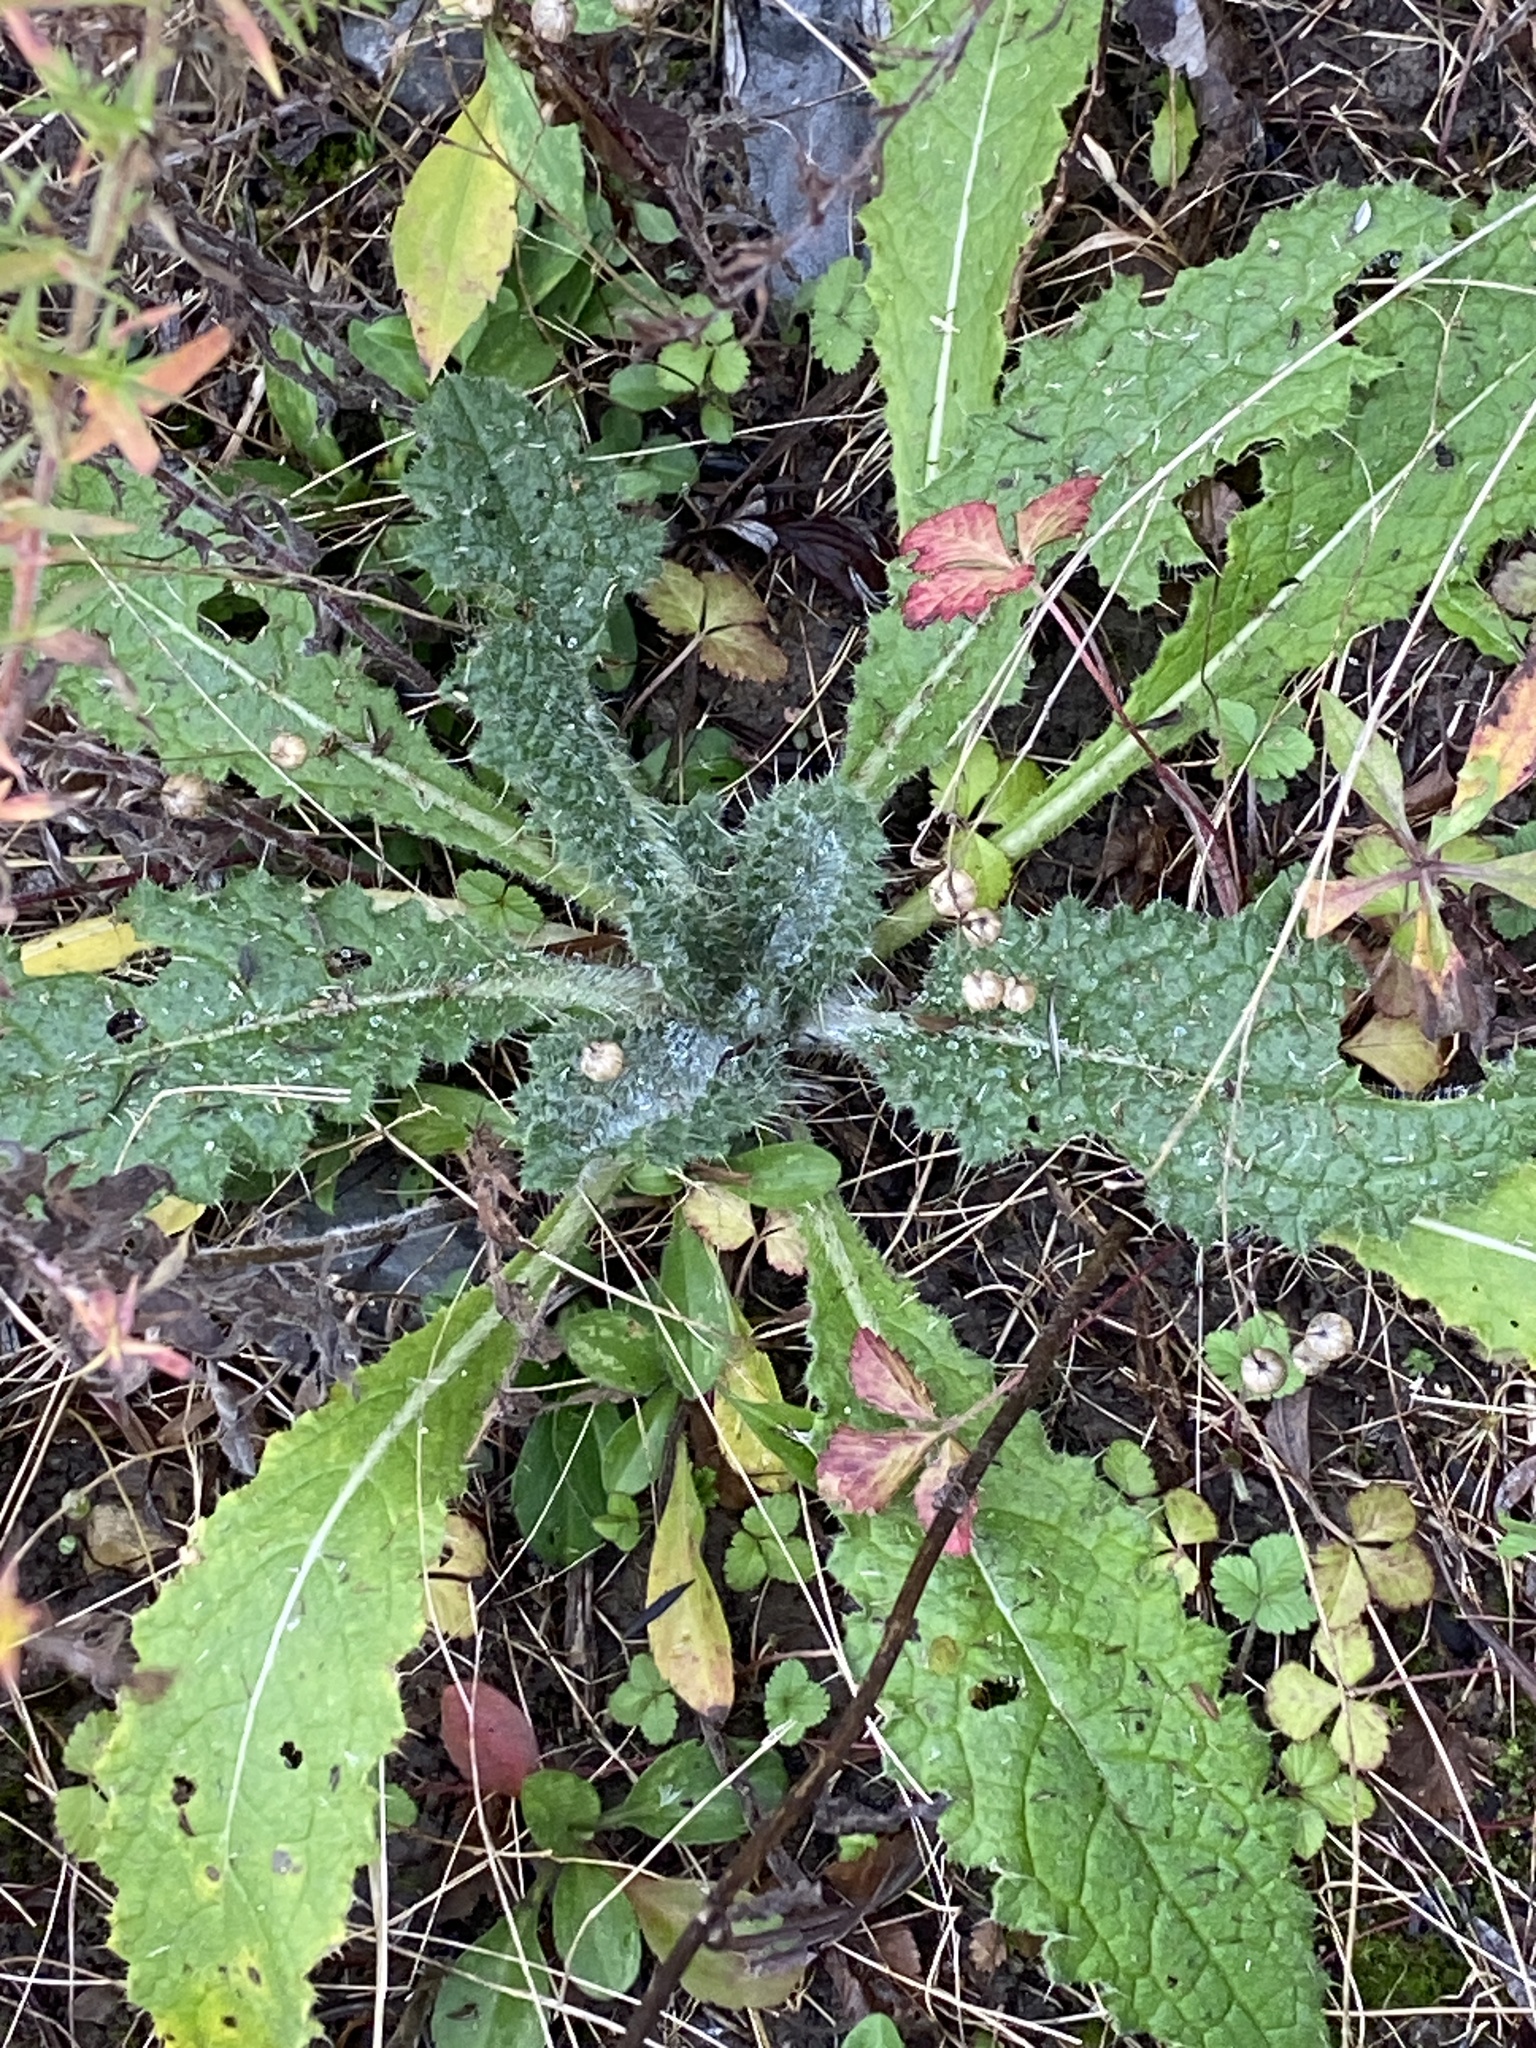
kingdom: Plantae
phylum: Tracheophyta
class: Magnoliopsida
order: Asterales
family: Asteraceae
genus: Cirsium
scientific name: Cirsium vulgare
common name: Bull thistle
